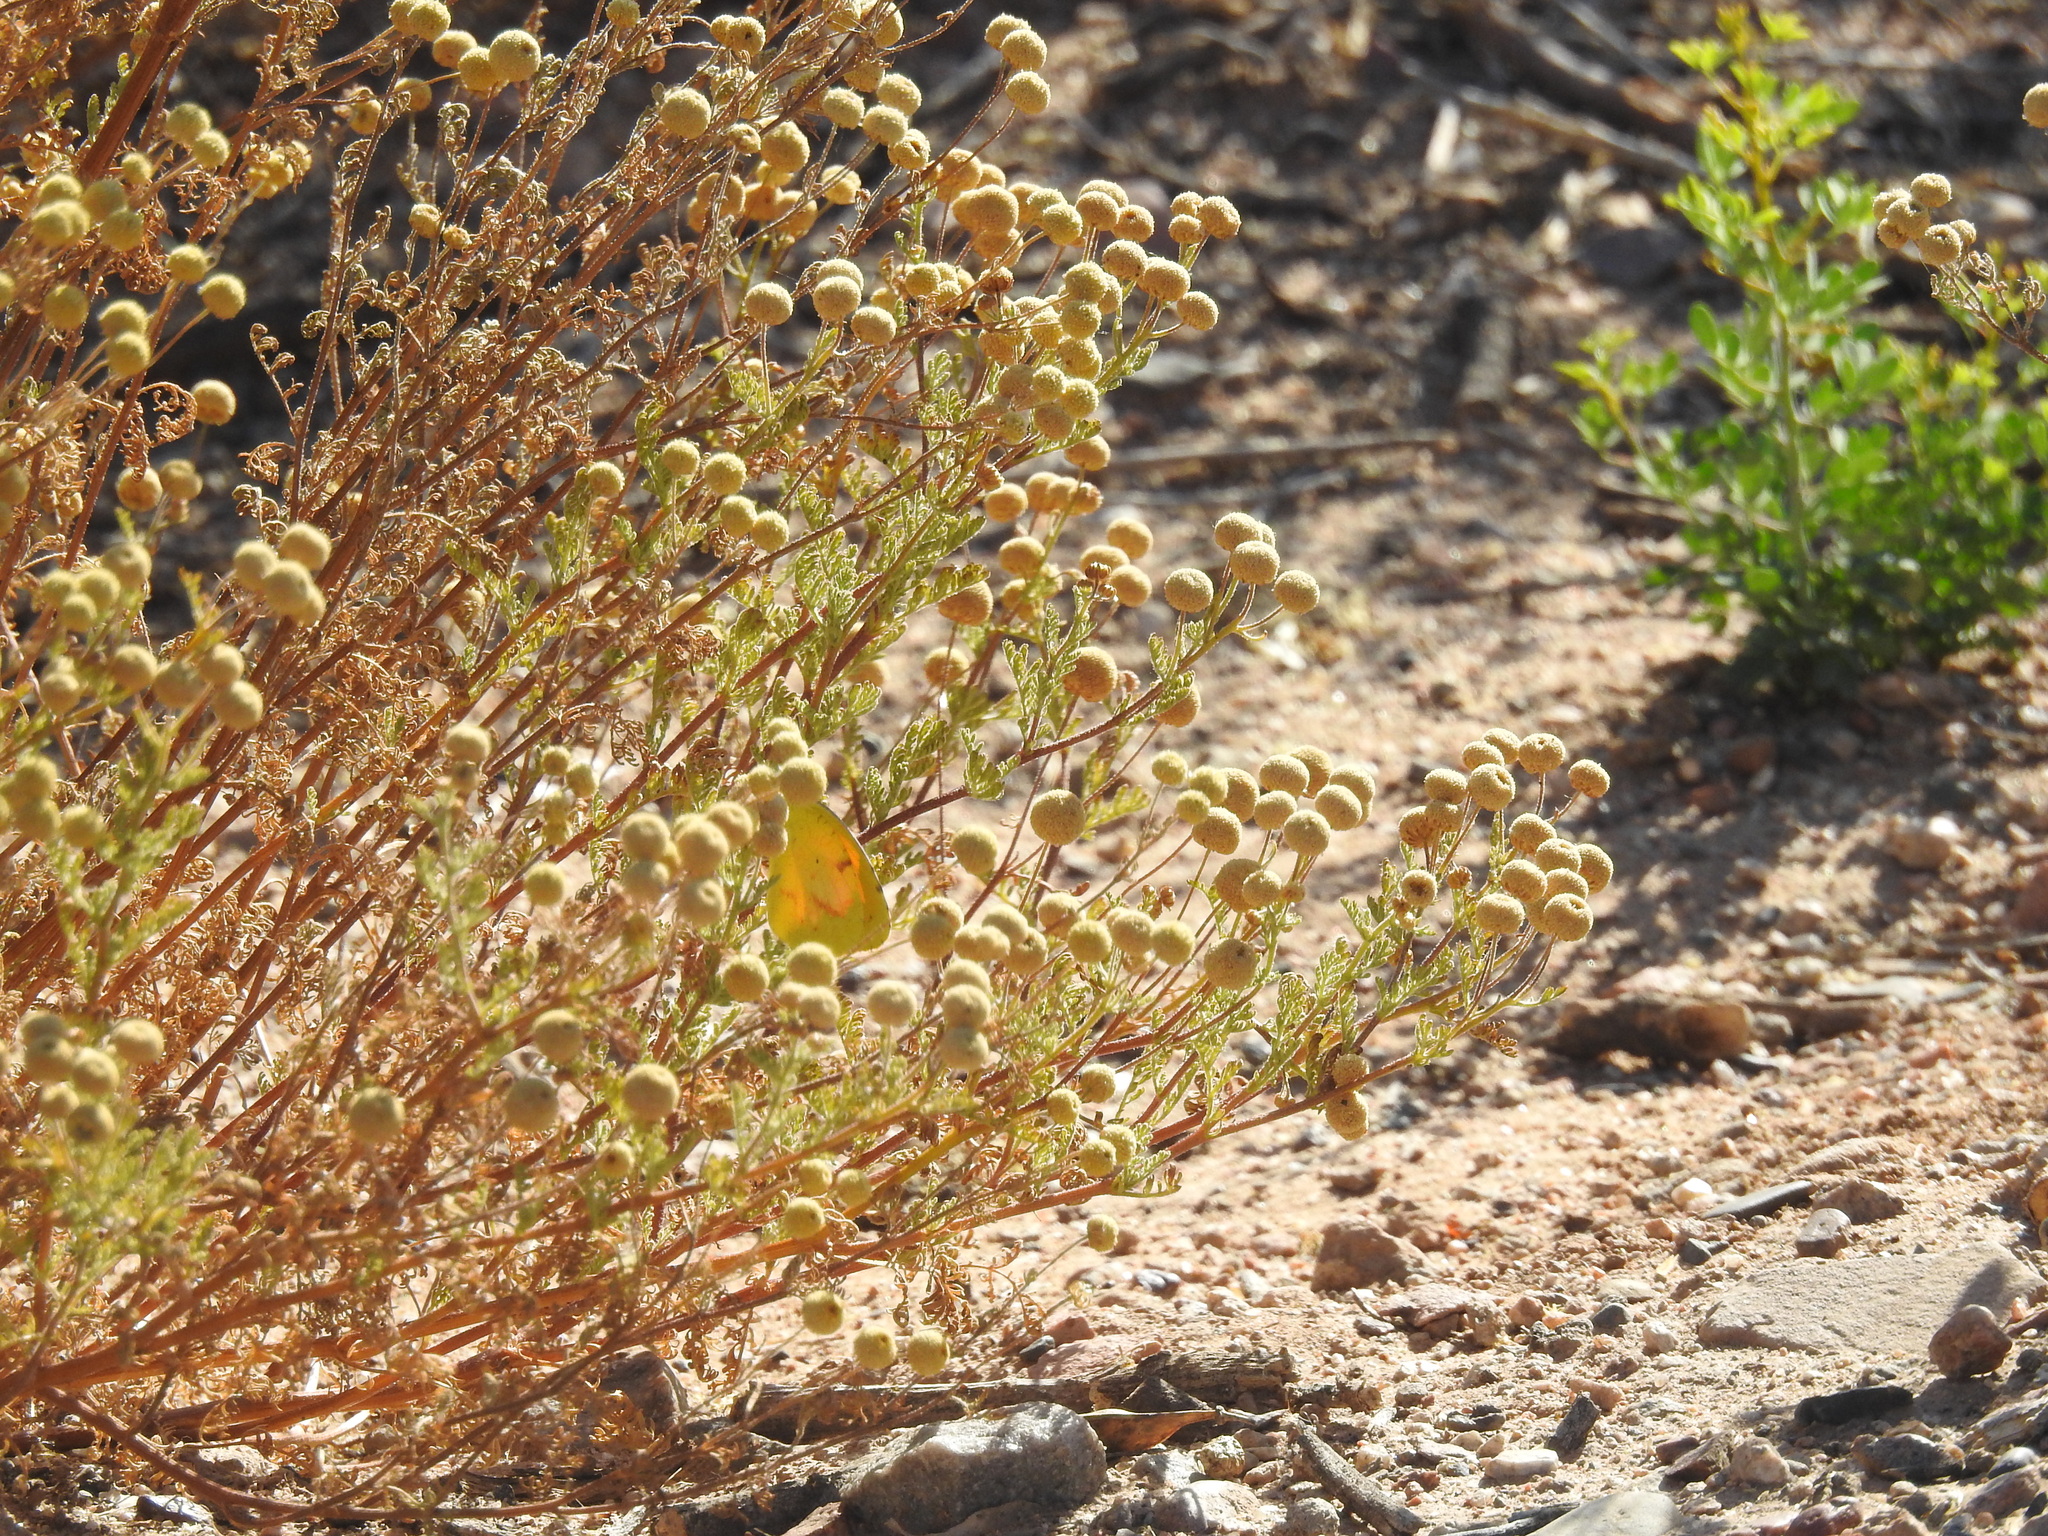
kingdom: Plantae
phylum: Tracheophyta
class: Magnoliopsida
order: Asterales
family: Asteraceae
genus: Oncosiphon
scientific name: Oncosiphon pilulifer
